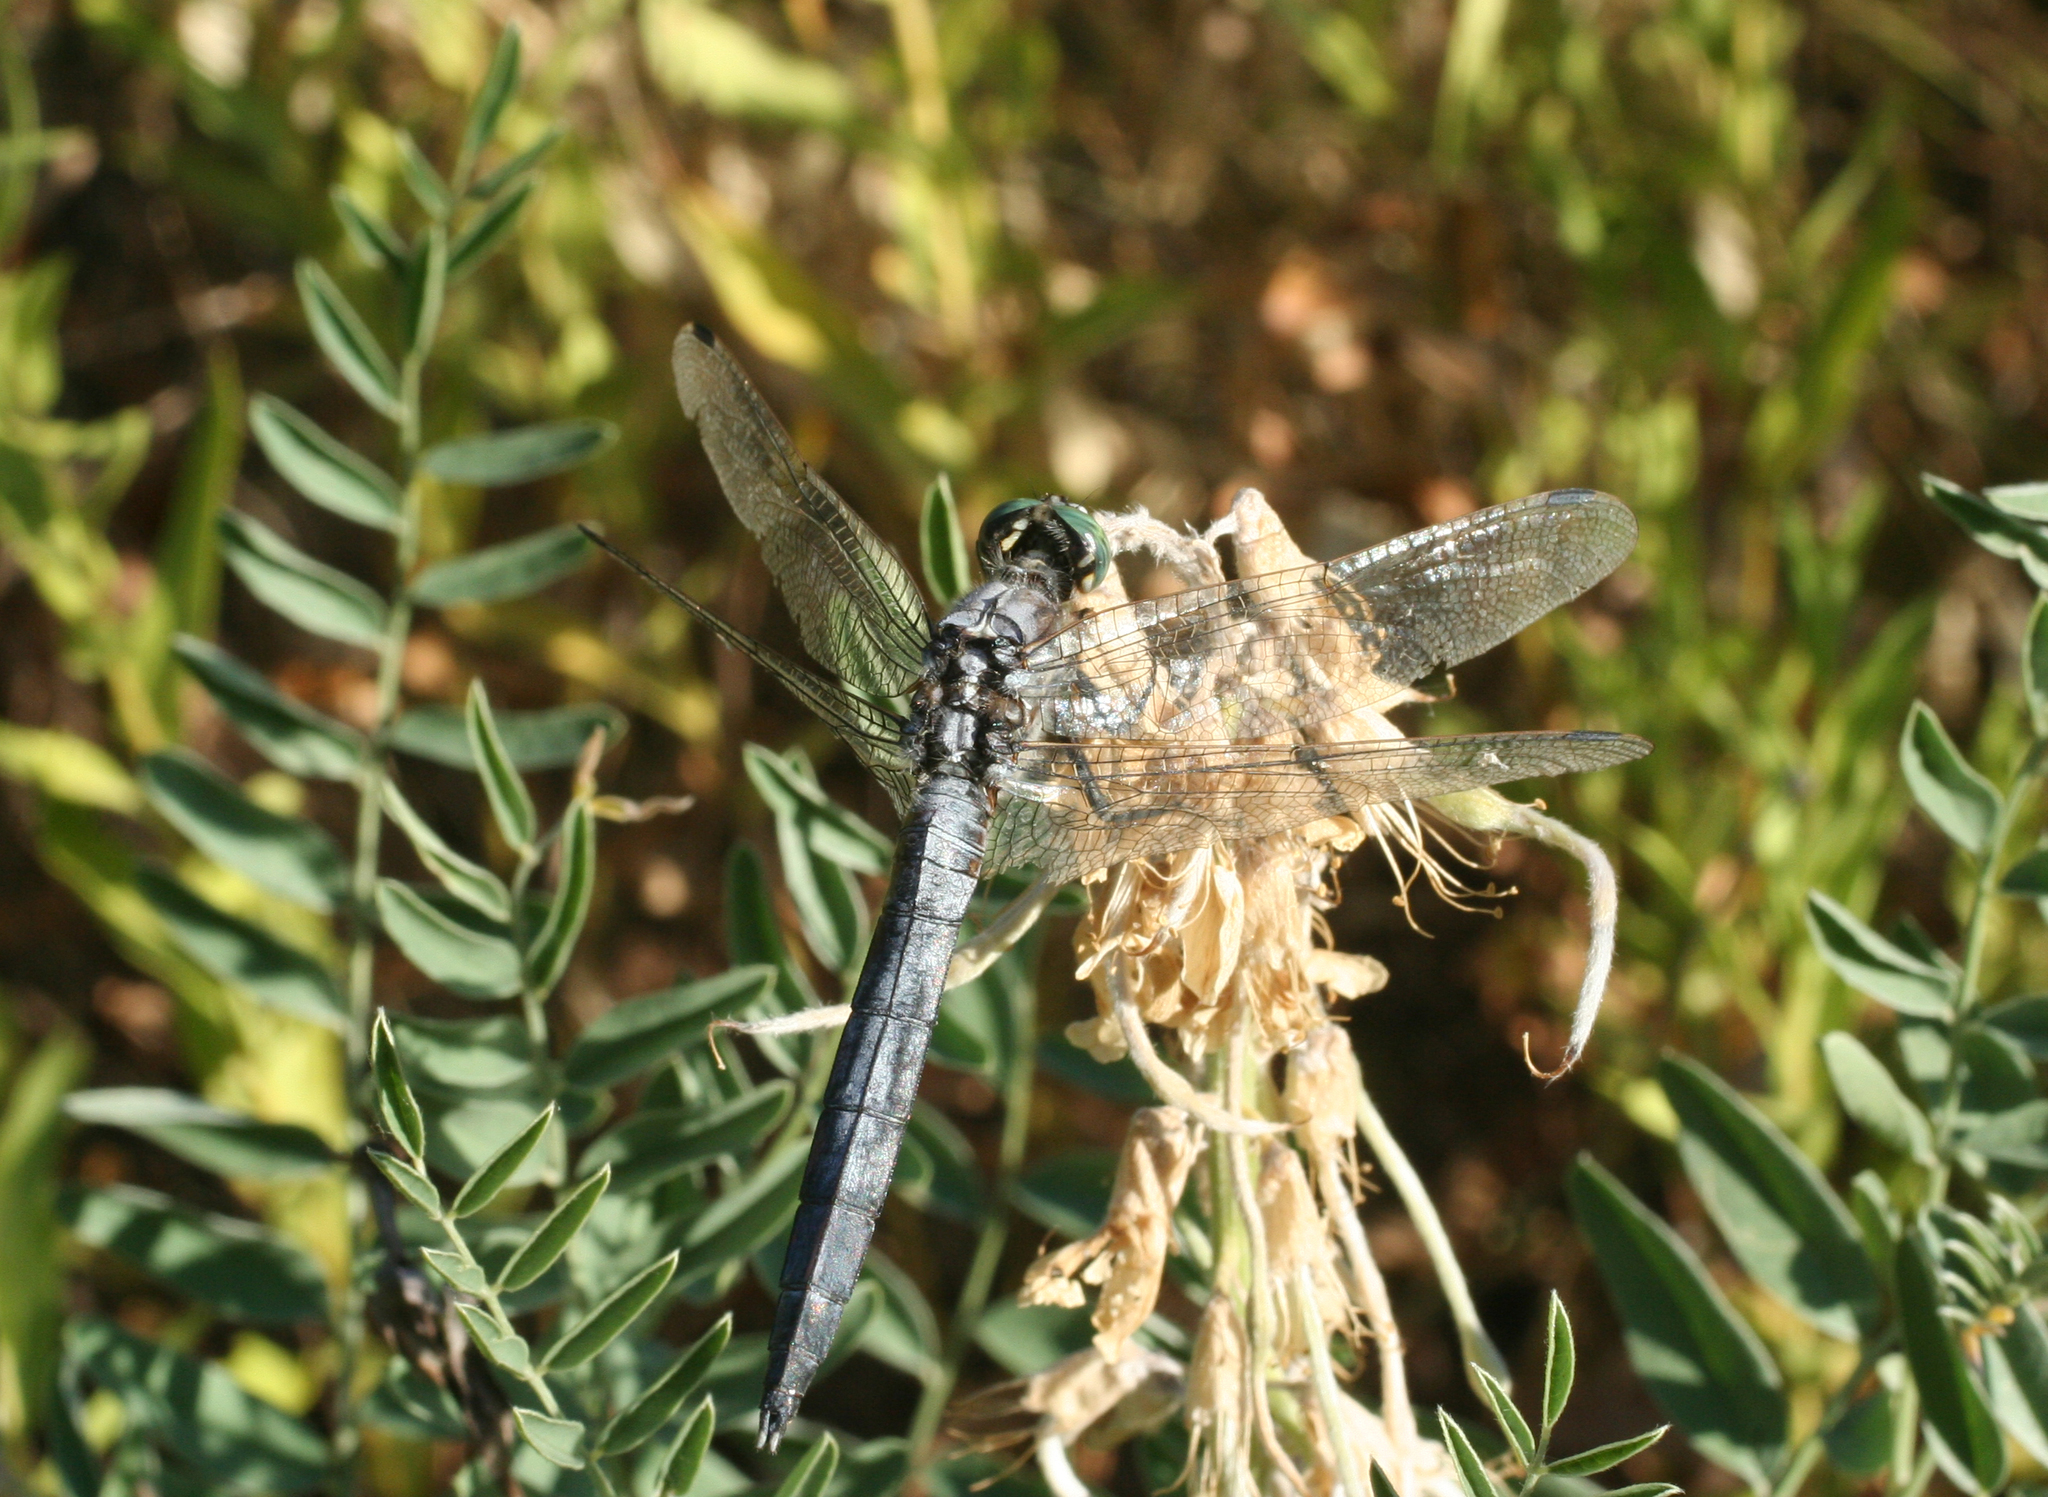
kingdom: Animalia
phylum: Arthropoda
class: Insecta
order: Odonata
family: Libellulidae
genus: Orthetrum
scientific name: Orthetrum albistylum
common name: White-tailed skimmer
